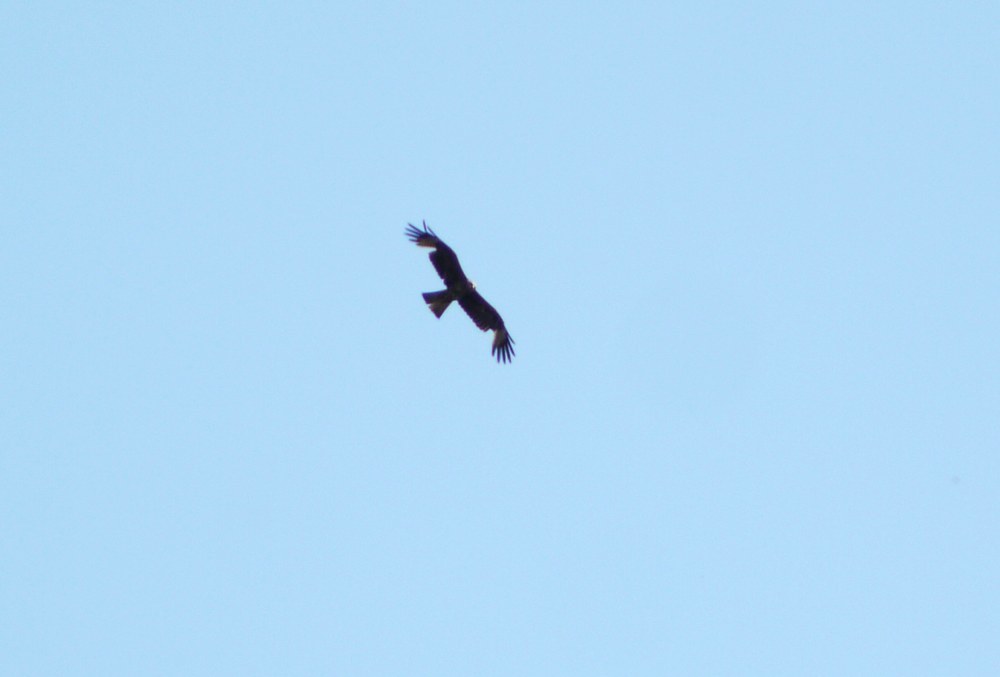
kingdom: Animalia
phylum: Chordata
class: Aves
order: Accipitriformes
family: Accipitridae
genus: Milvus
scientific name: Milvus migrans
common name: Black kite
